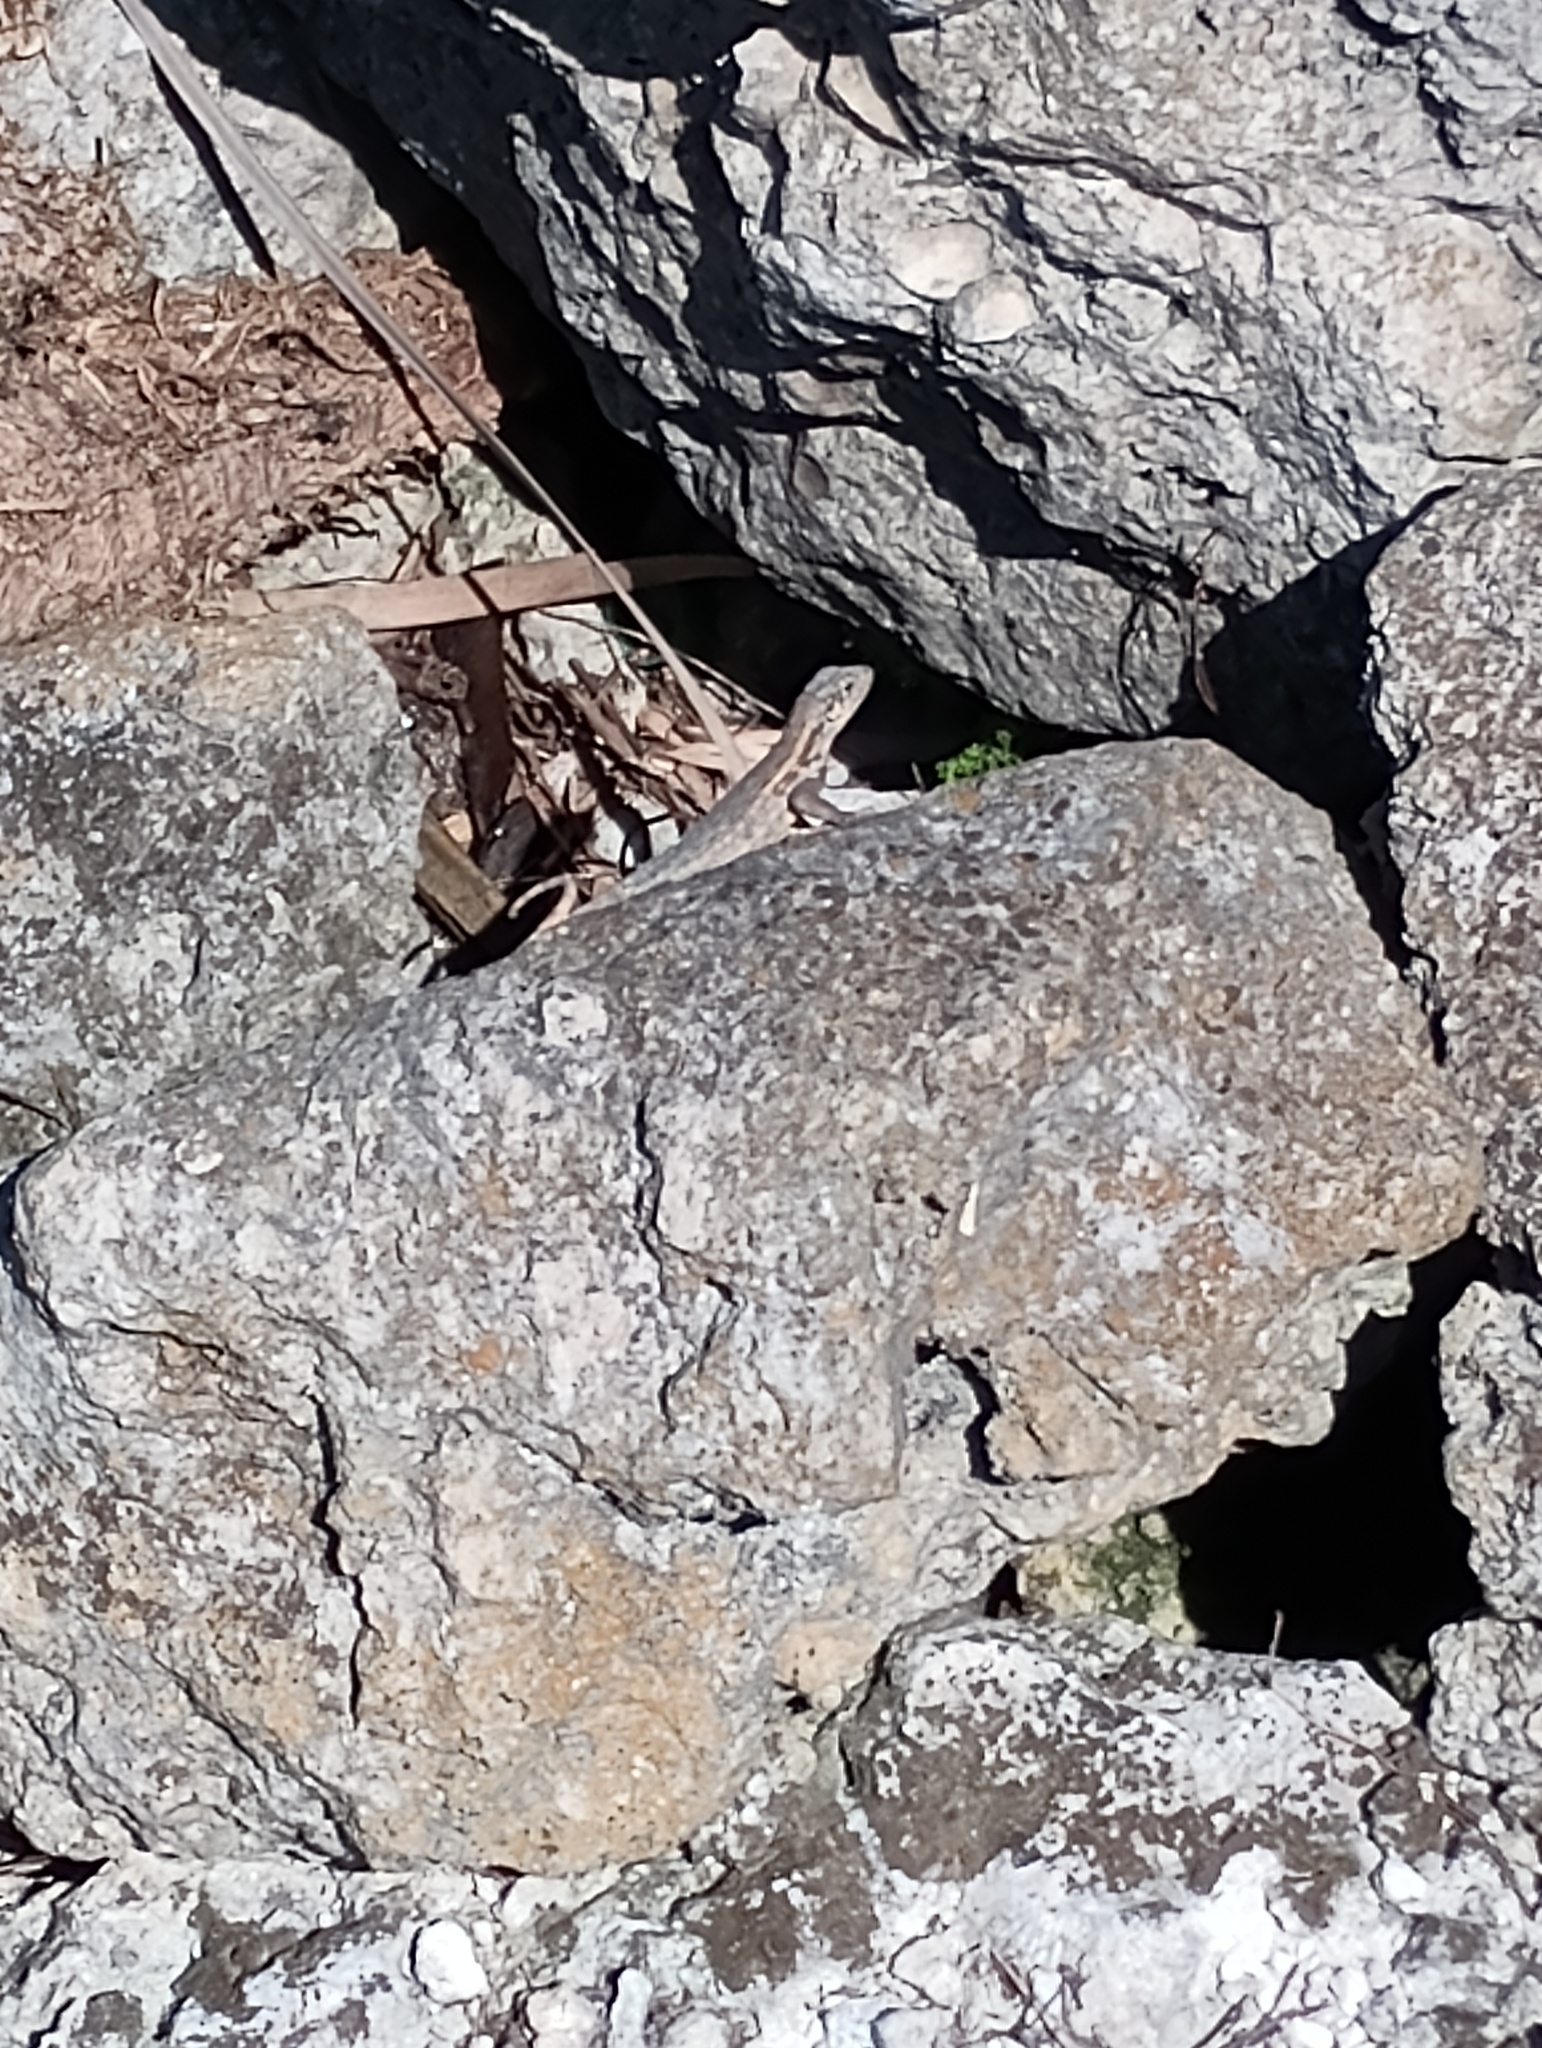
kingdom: Animalia
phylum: Chordata
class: Squamata
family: Leiocephalidae
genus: Leiocephalus
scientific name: Leiocephalus carinatus
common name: Northern curly-tailed lizard
